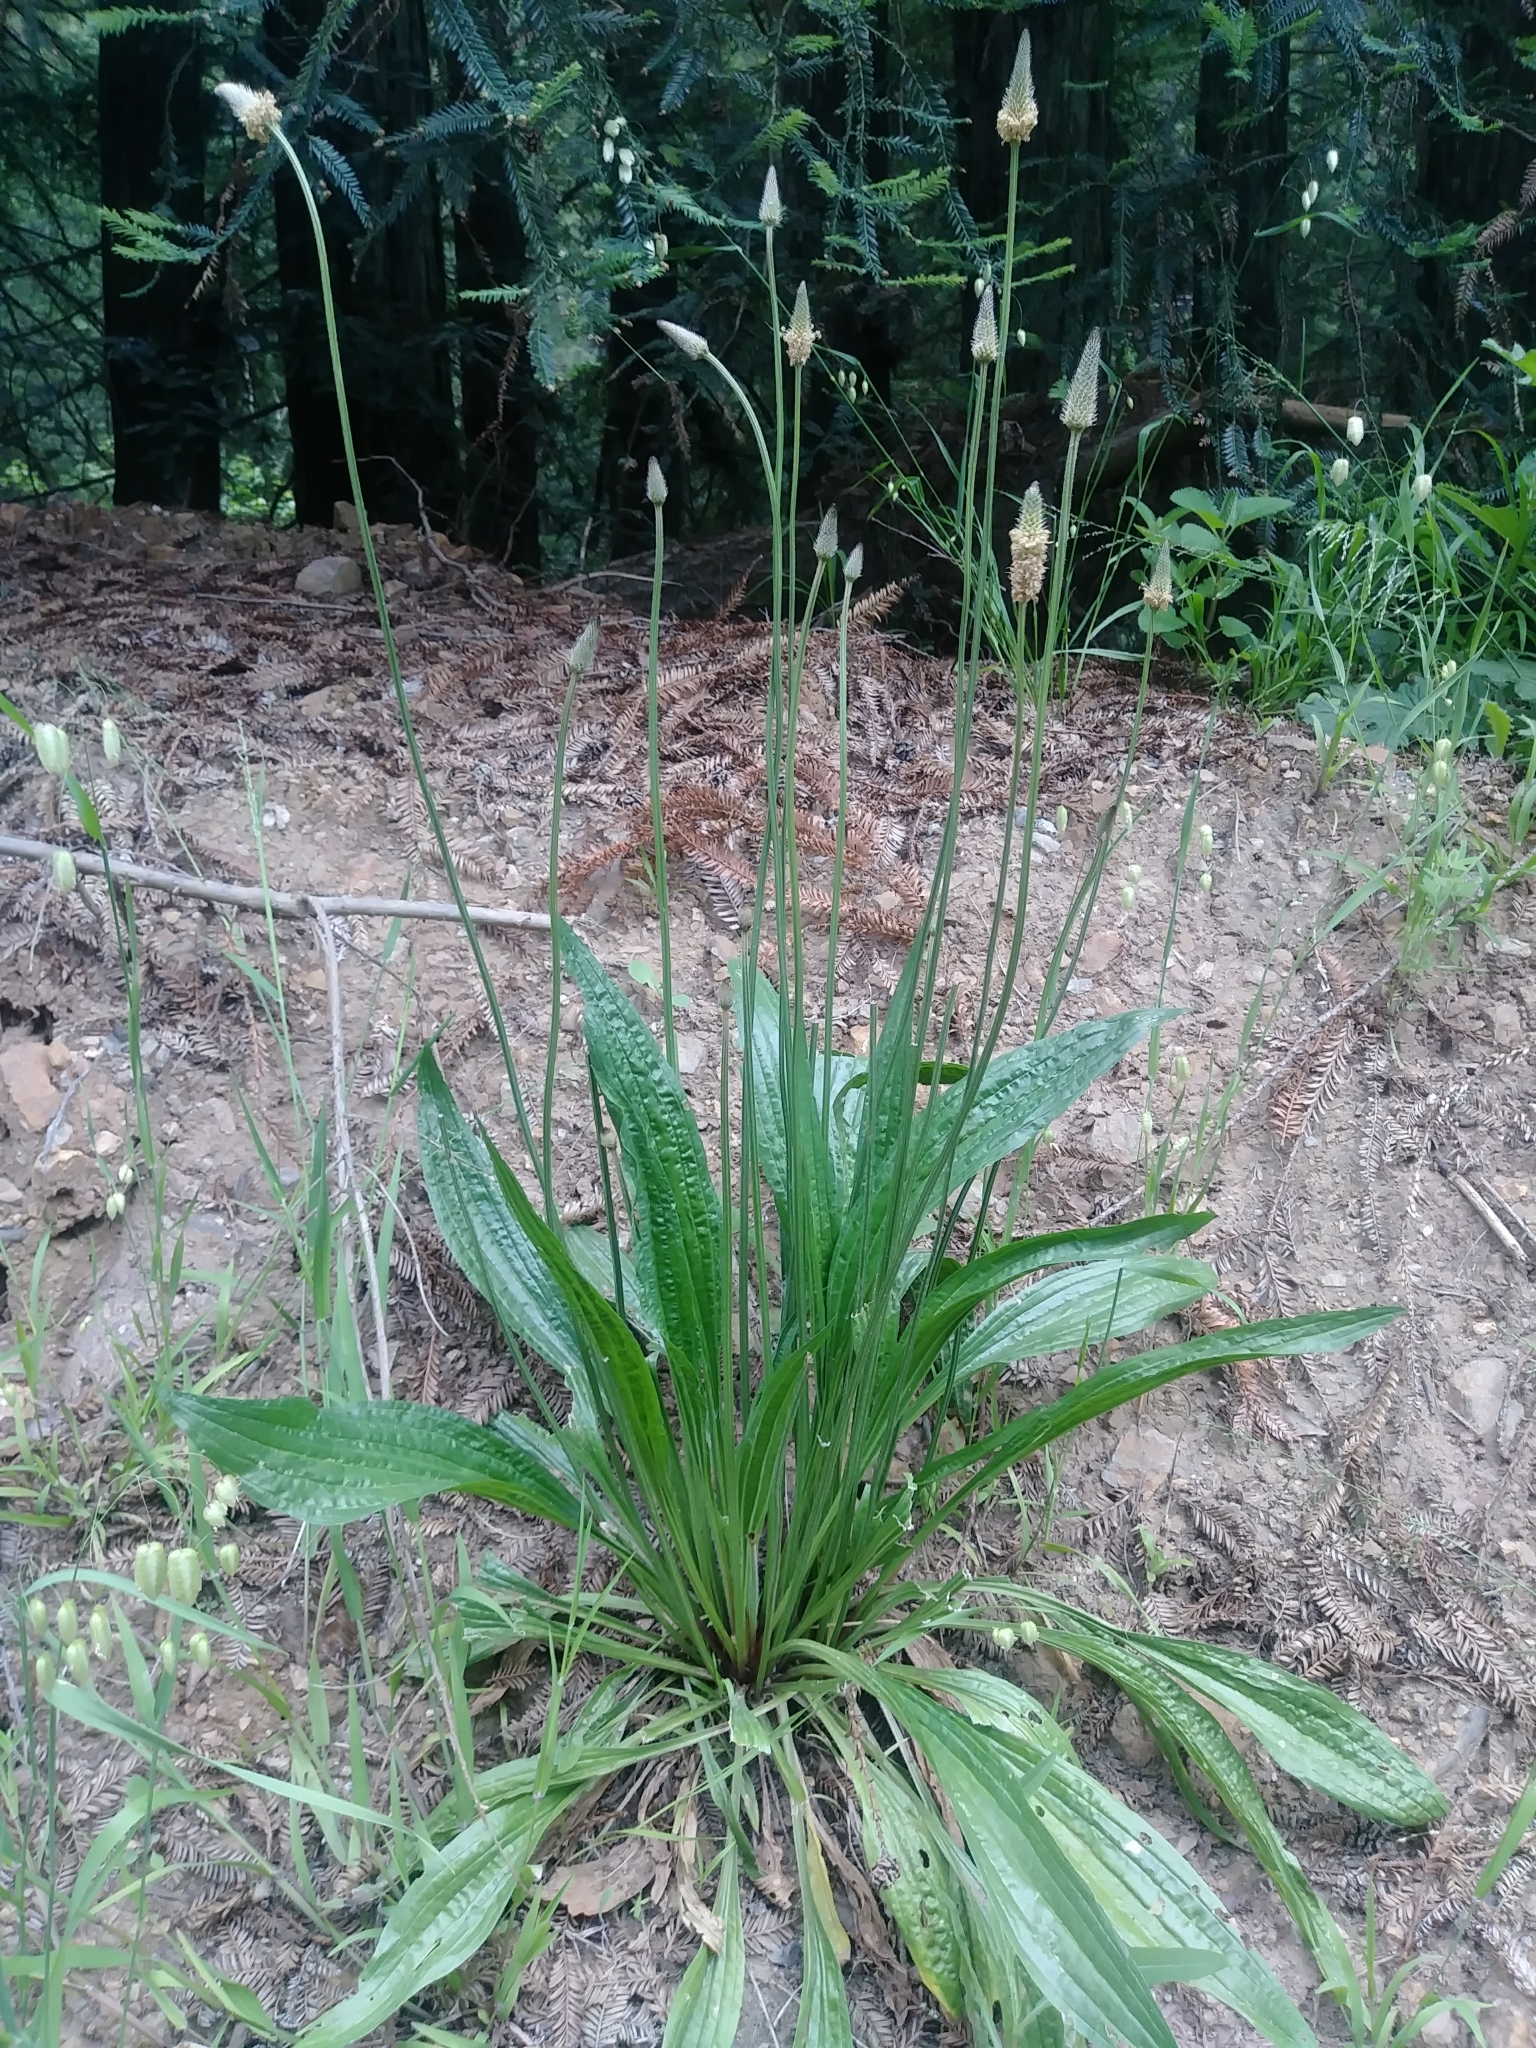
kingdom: Plantae
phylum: Tracheophyta
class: Magnoliopsida
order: Lamiales
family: Plantaginaceae
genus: Plantago
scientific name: Plantago lanceolata
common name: Ribwort plantain
